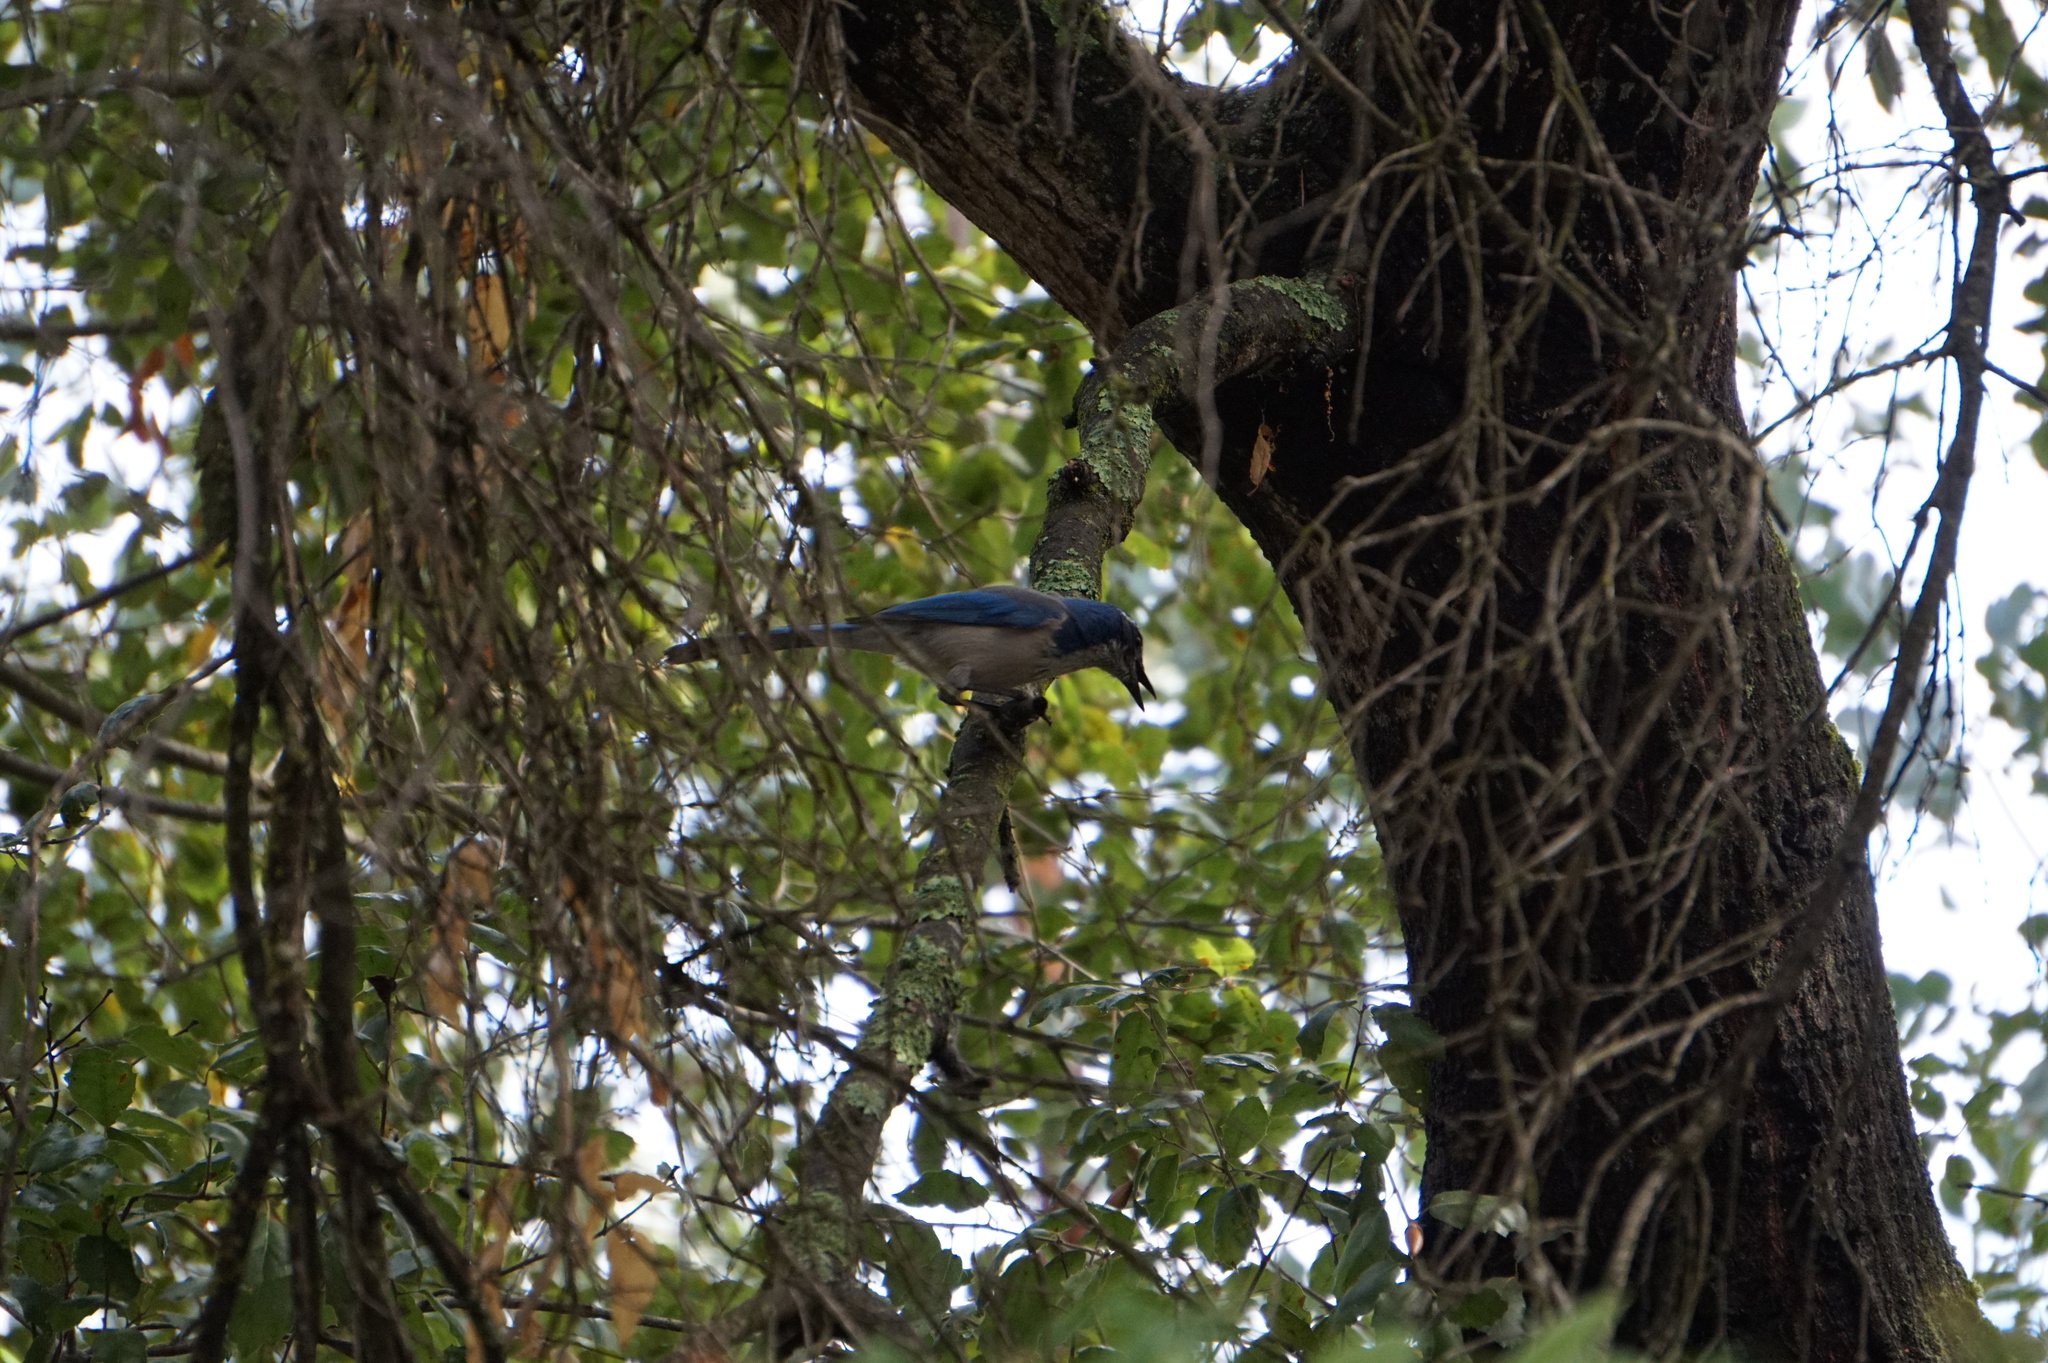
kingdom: Animalia
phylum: Chordata
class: Aves
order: Passeriformes
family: Corvidae
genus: Aphelocoma
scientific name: Aphelocoma californica
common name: California scrub-jay
